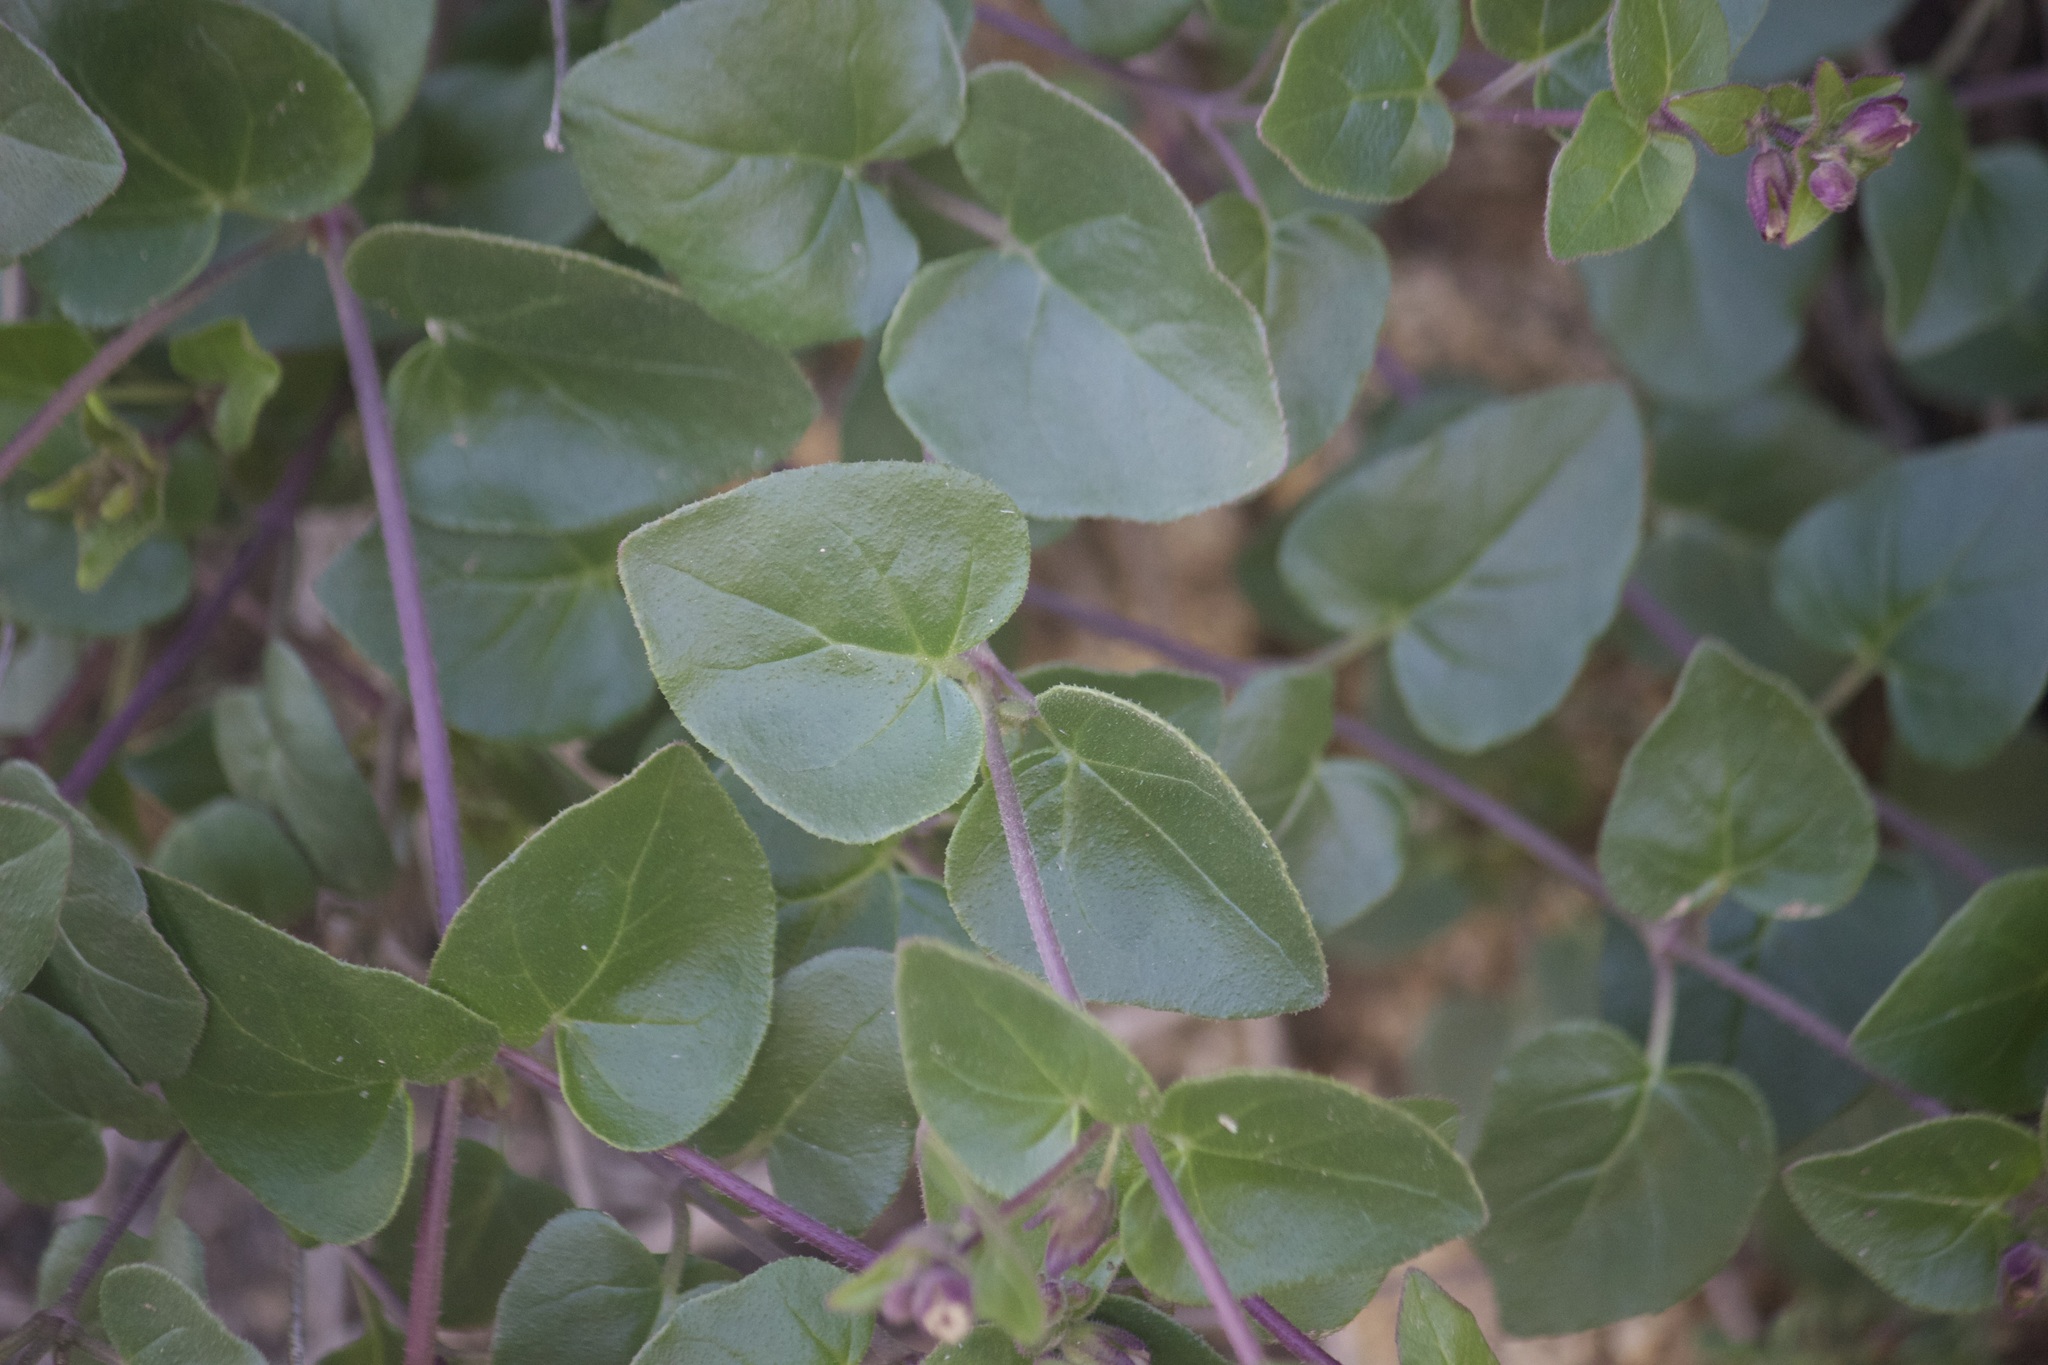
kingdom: Plantae
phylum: Tracheophyta
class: Magnoliopsida
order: Caryophyllales
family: Nyctaginaceae
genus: Mirabilis
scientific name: Mirabilis laevis
